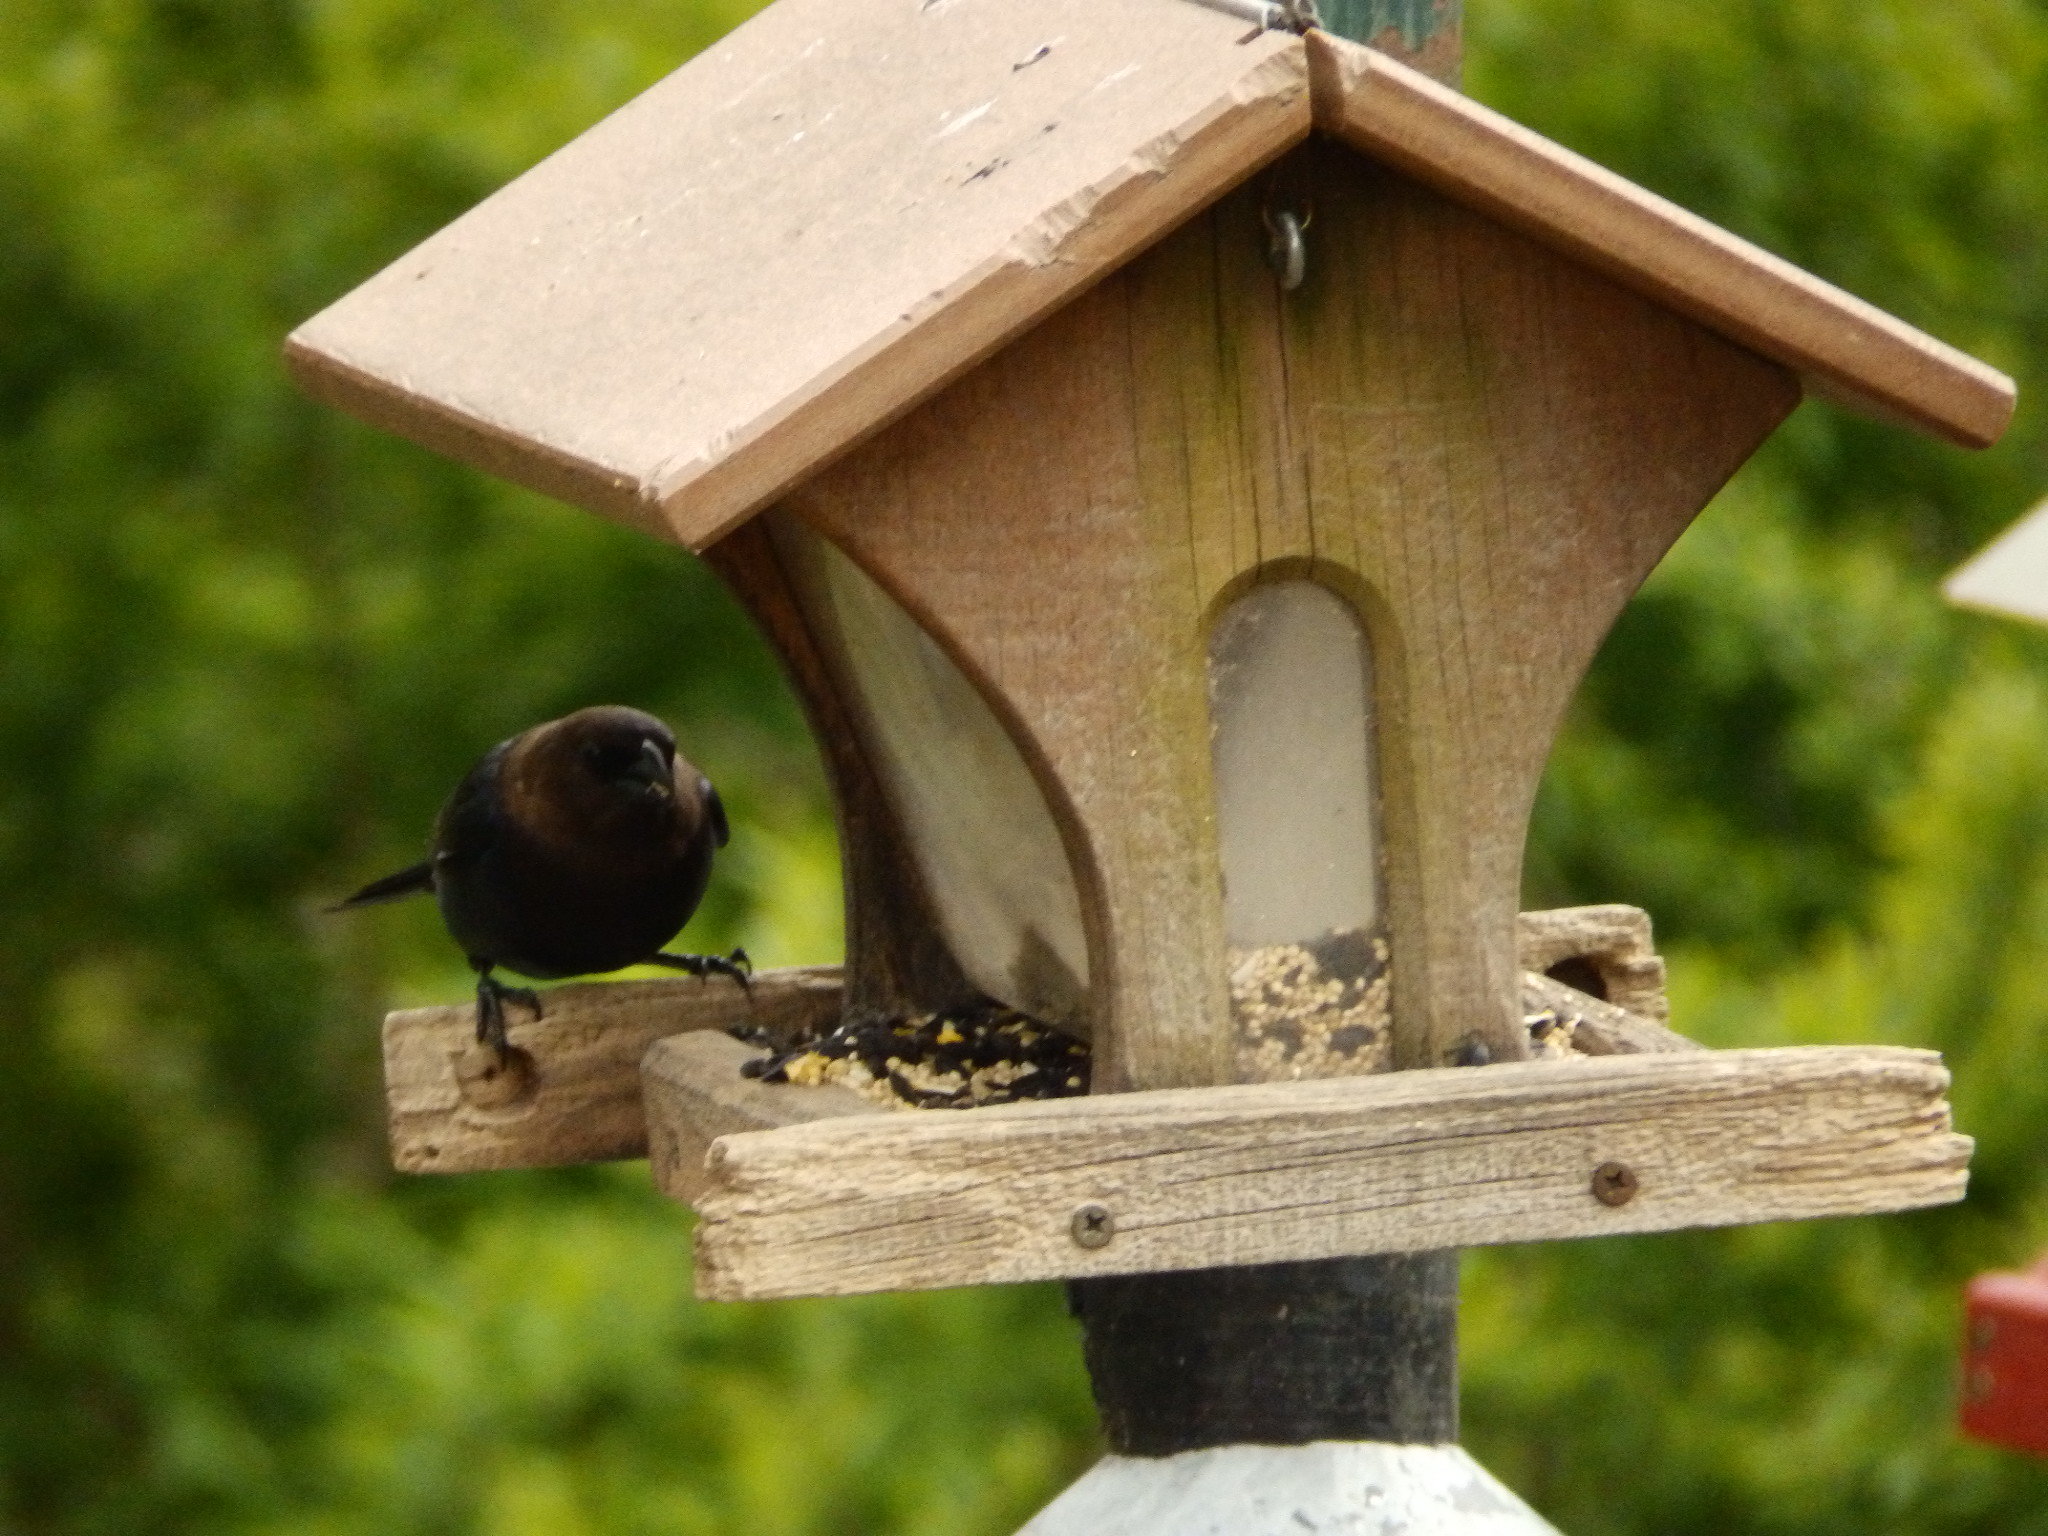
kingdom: Animalia
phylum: Chordata
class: Aves
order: Passeriformes
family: Icteridae
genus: Molothrus
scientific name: Molothrus ater
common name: Brown-headed cowbird
